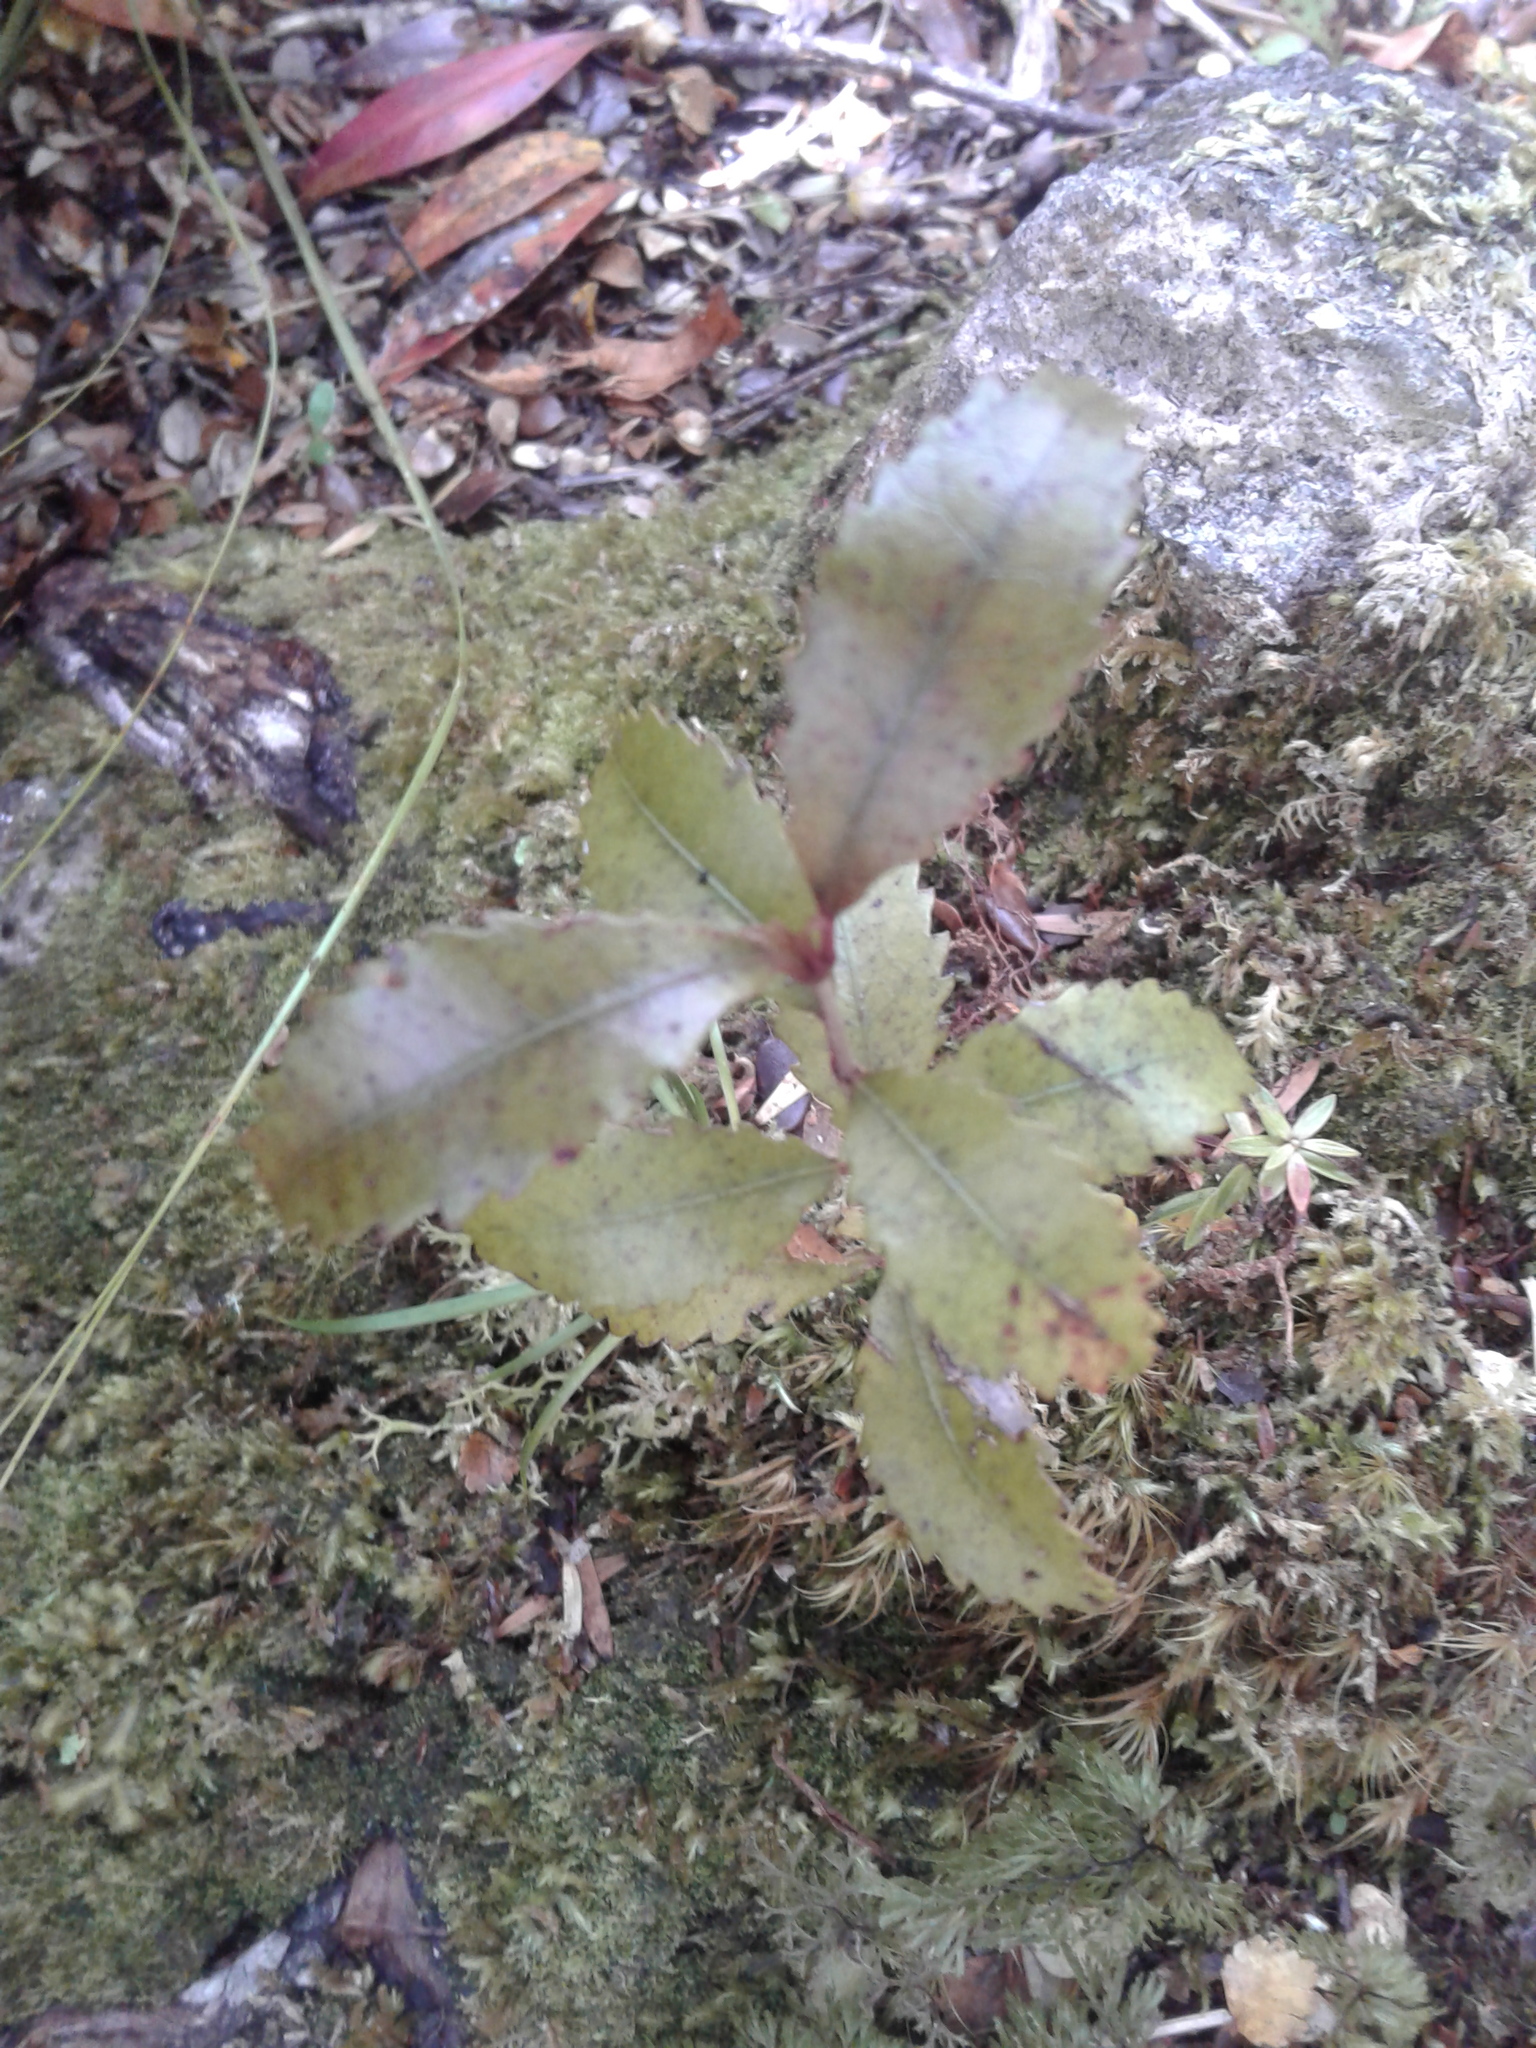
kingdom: Plantae
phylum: Tracheophyta
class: Magnoliopsida
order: Oxalidales
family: Cunoniaceae
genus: Pterophylla
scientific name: Pterophylla racemosa
